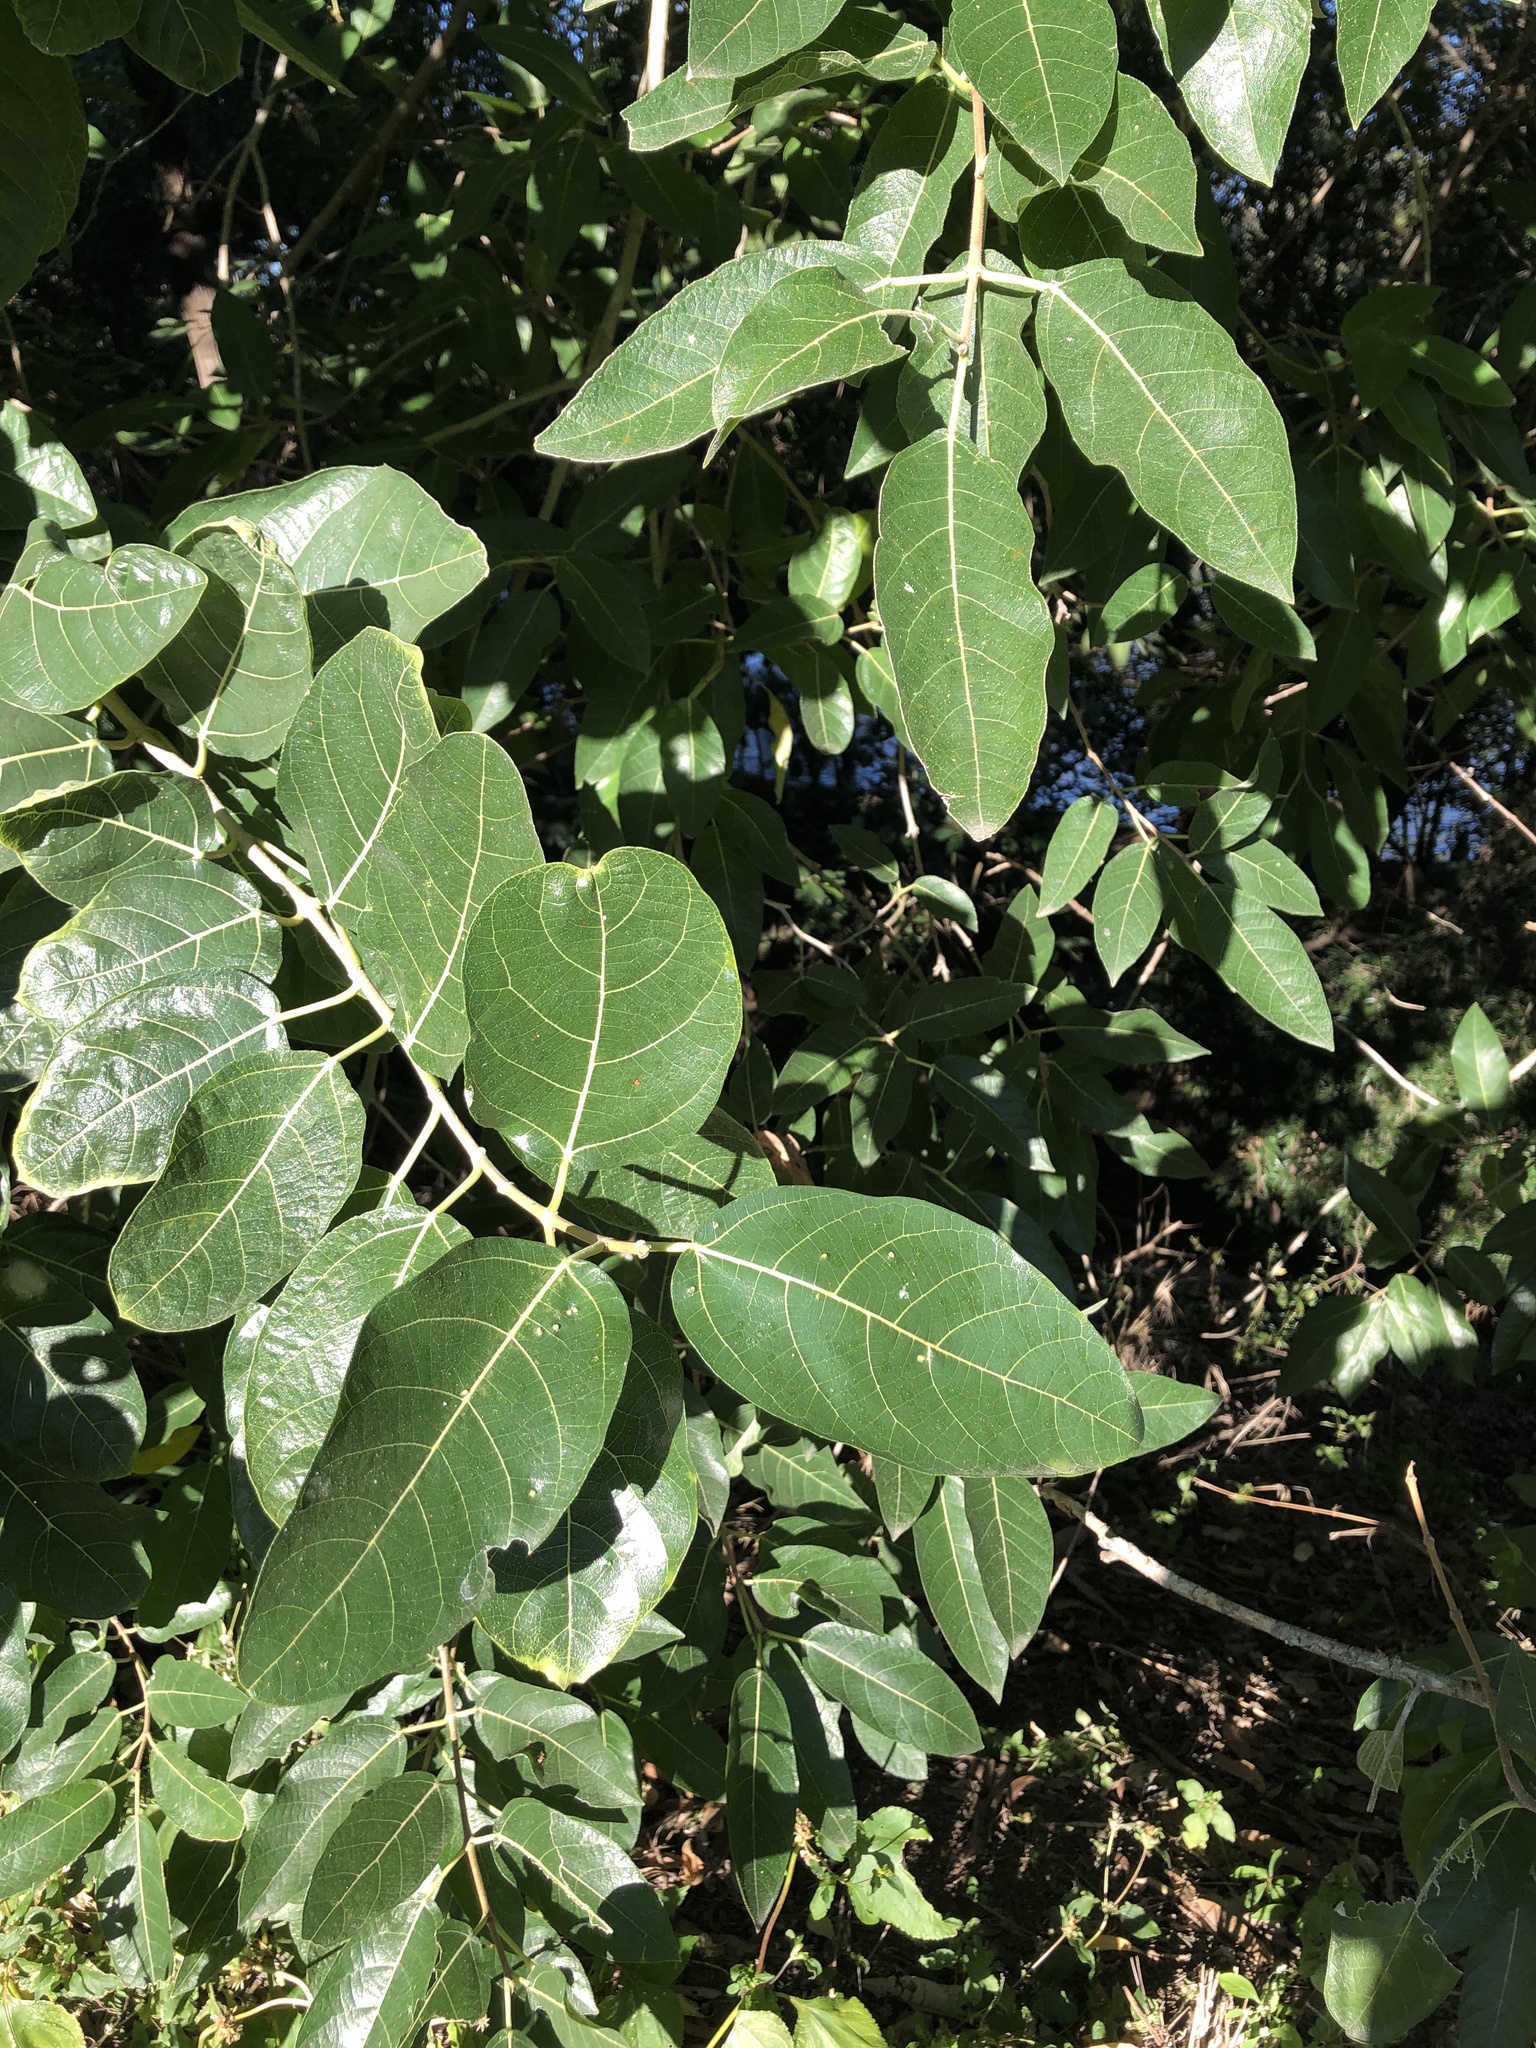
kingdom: Plantae
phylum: Tracheophyta
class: Magnoliopsida
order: Rosales
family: Moraceae
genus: Ficus
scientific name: Ficus opposita
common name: Figwood
